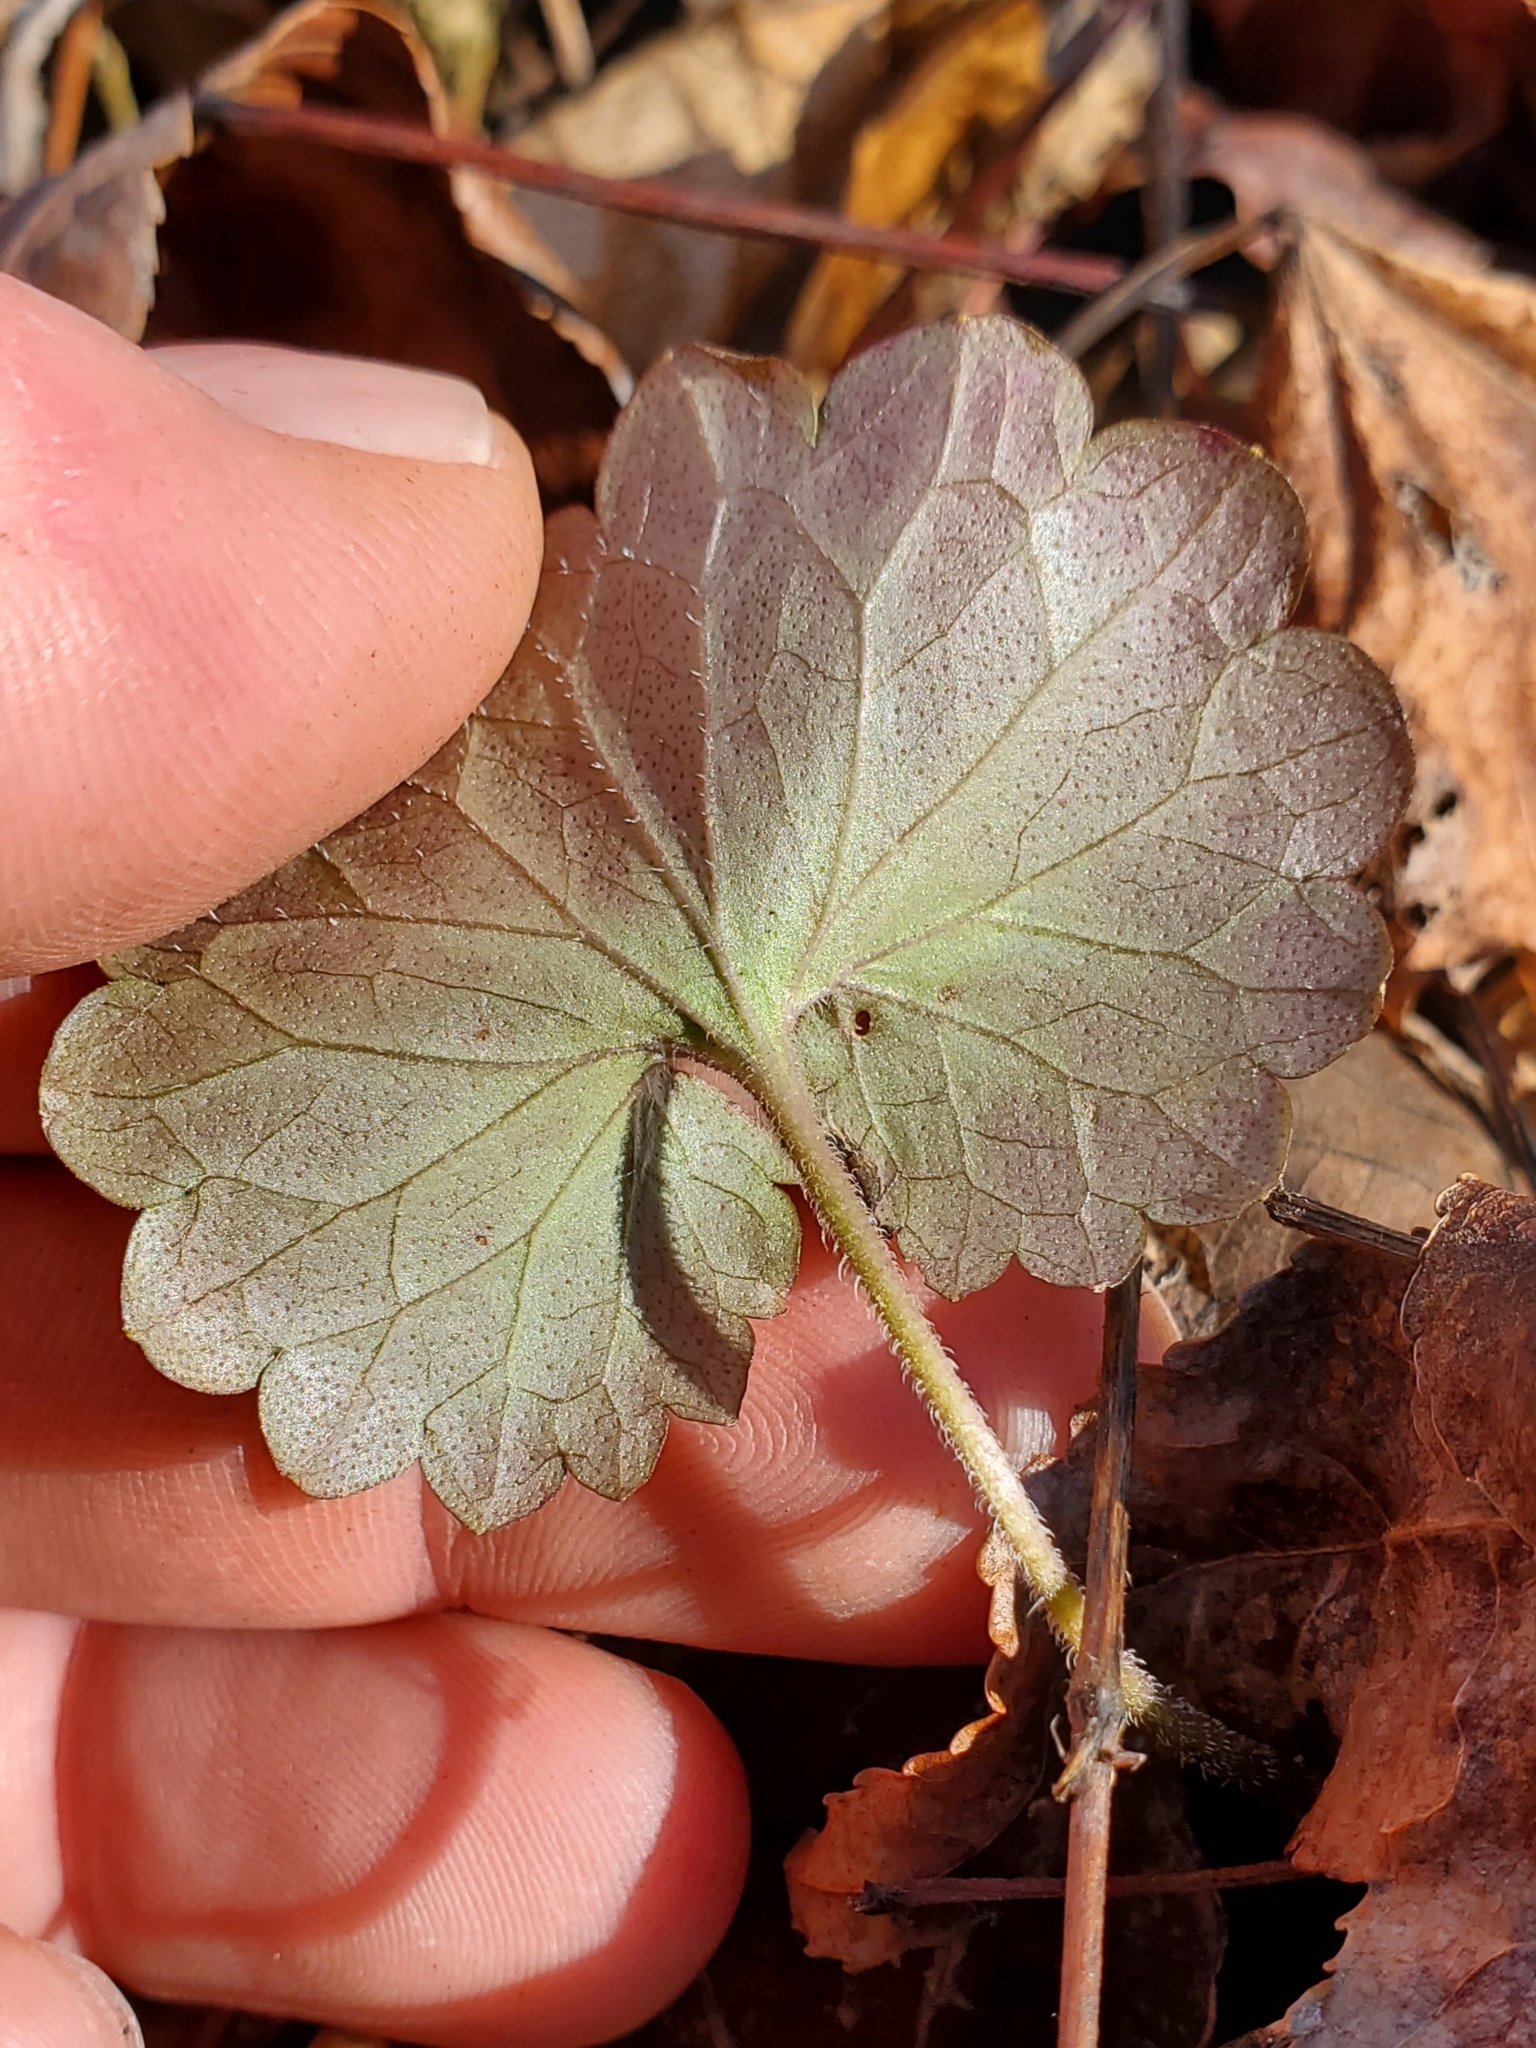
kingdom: Plantae
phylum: Tracheophyta
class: Magnoliopsida
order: Lamiales
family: Lamiaceae
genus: Glechoma
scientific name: Glechoma hederacea
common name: Ground ivy
